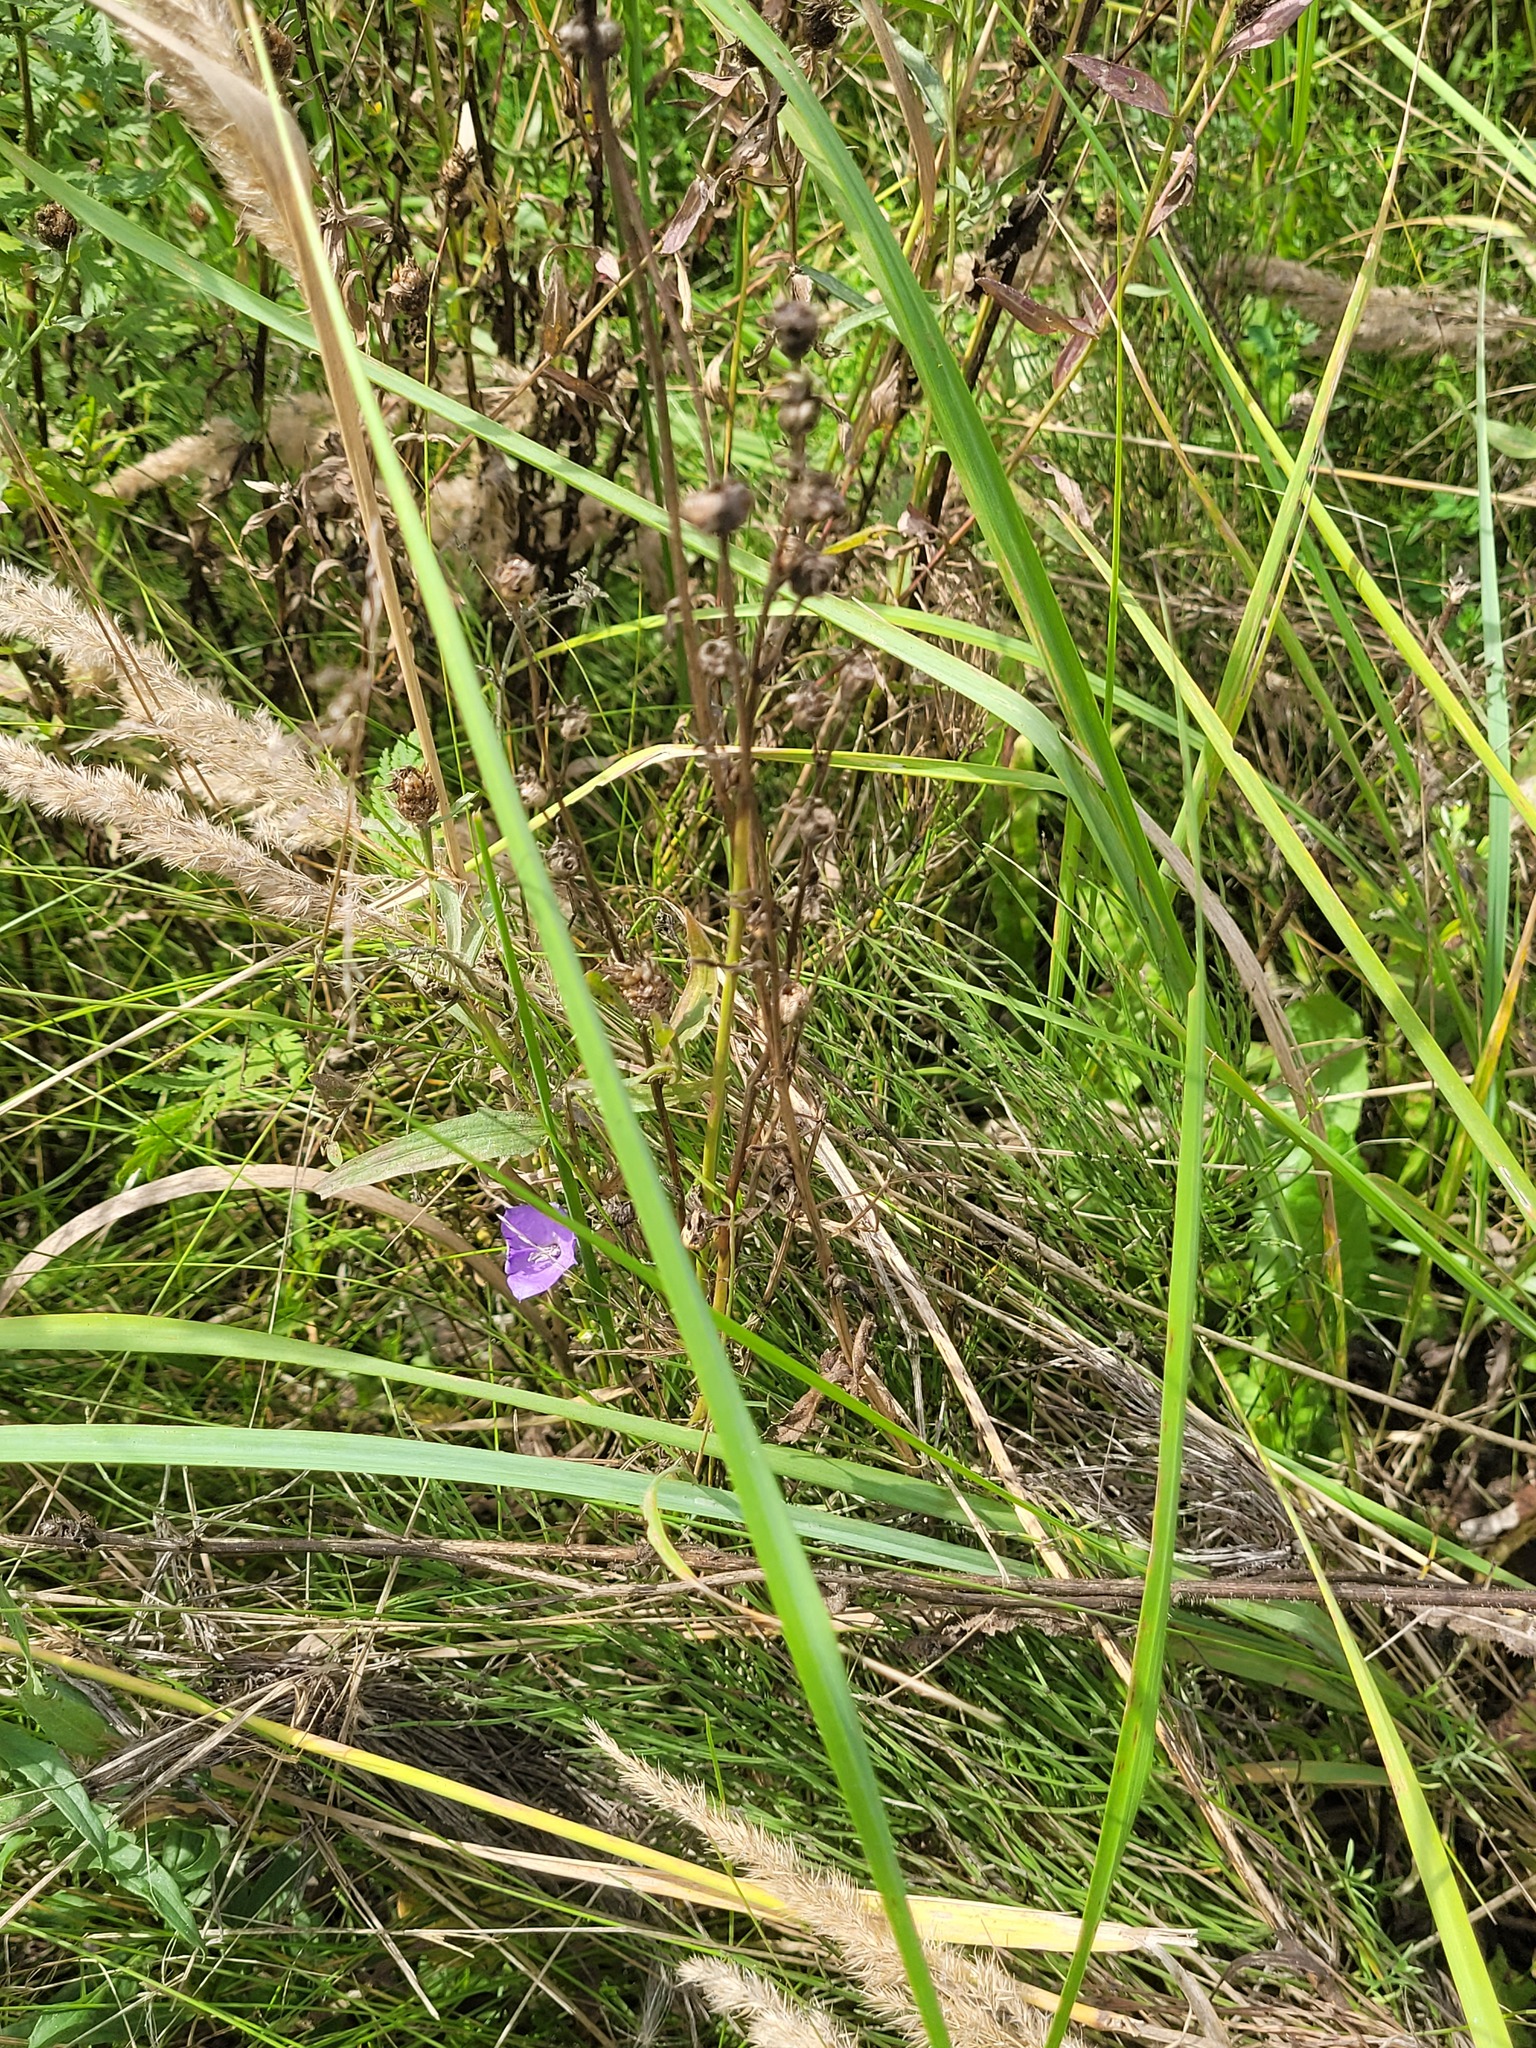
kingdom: Plantae
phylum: Tracheophyta
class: Magnoliopsida
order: Asterales
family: Campanulaceae
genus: Campanula
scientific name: Campanula persicifolia
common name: Peach-leaved bellflower
